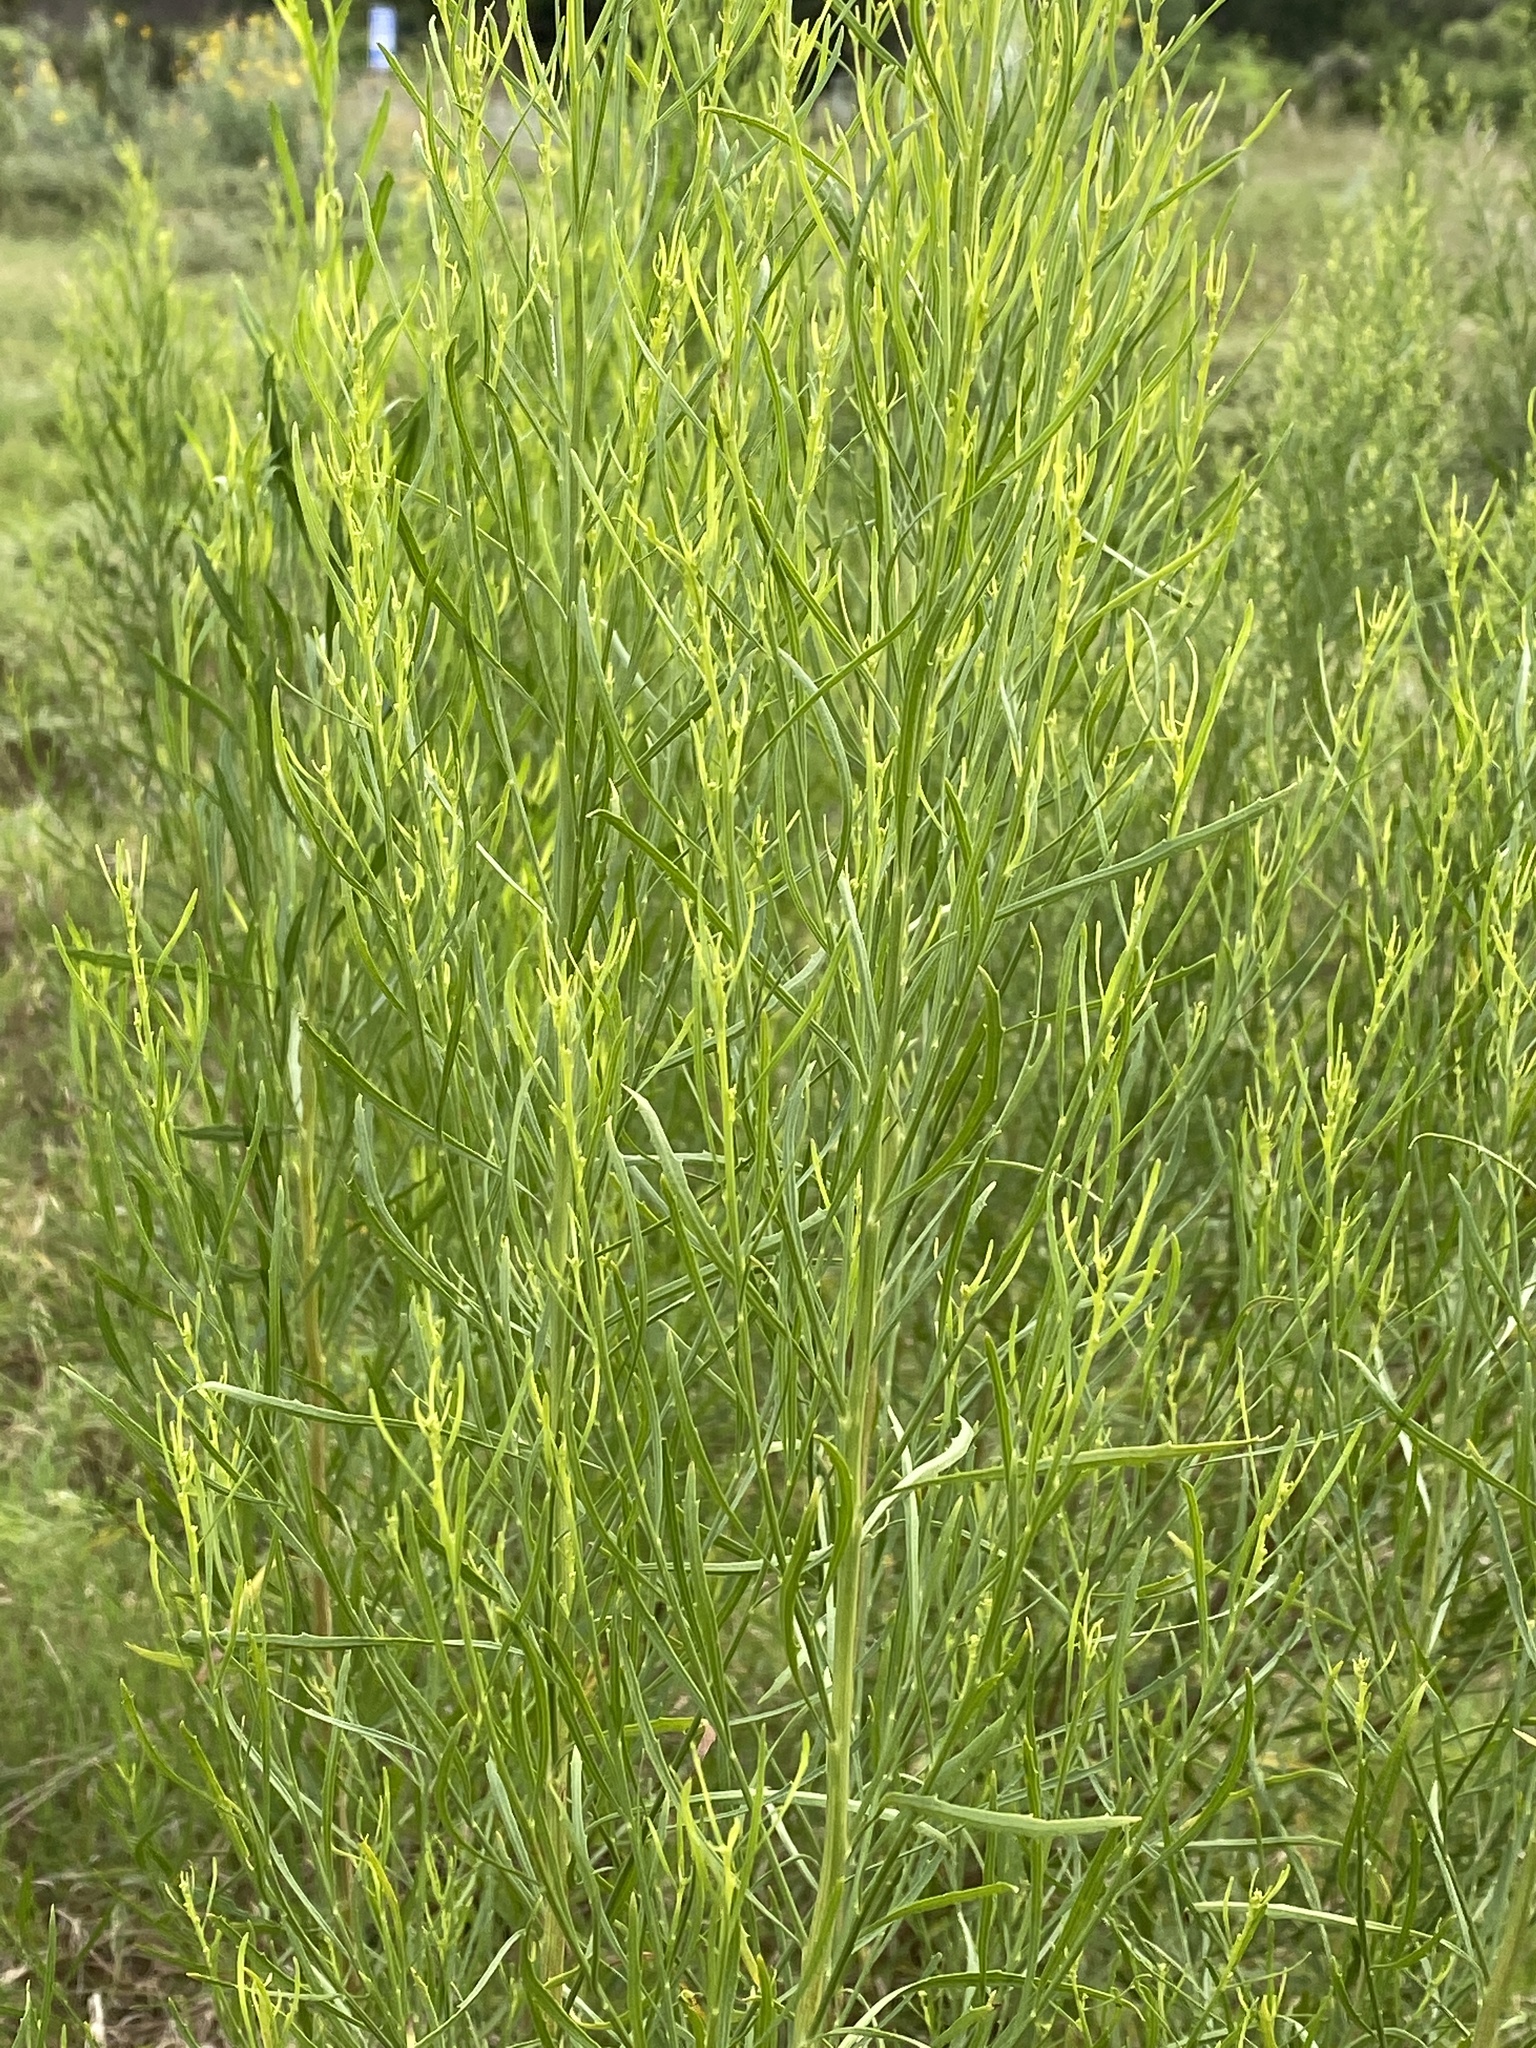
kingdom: Plantae
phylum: Tracheophyta
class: Magnoliopsida
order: Asterales
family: Asteraceae
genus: Baccharis
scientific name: Baccharis neglecta
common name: Roosevelt-weed
